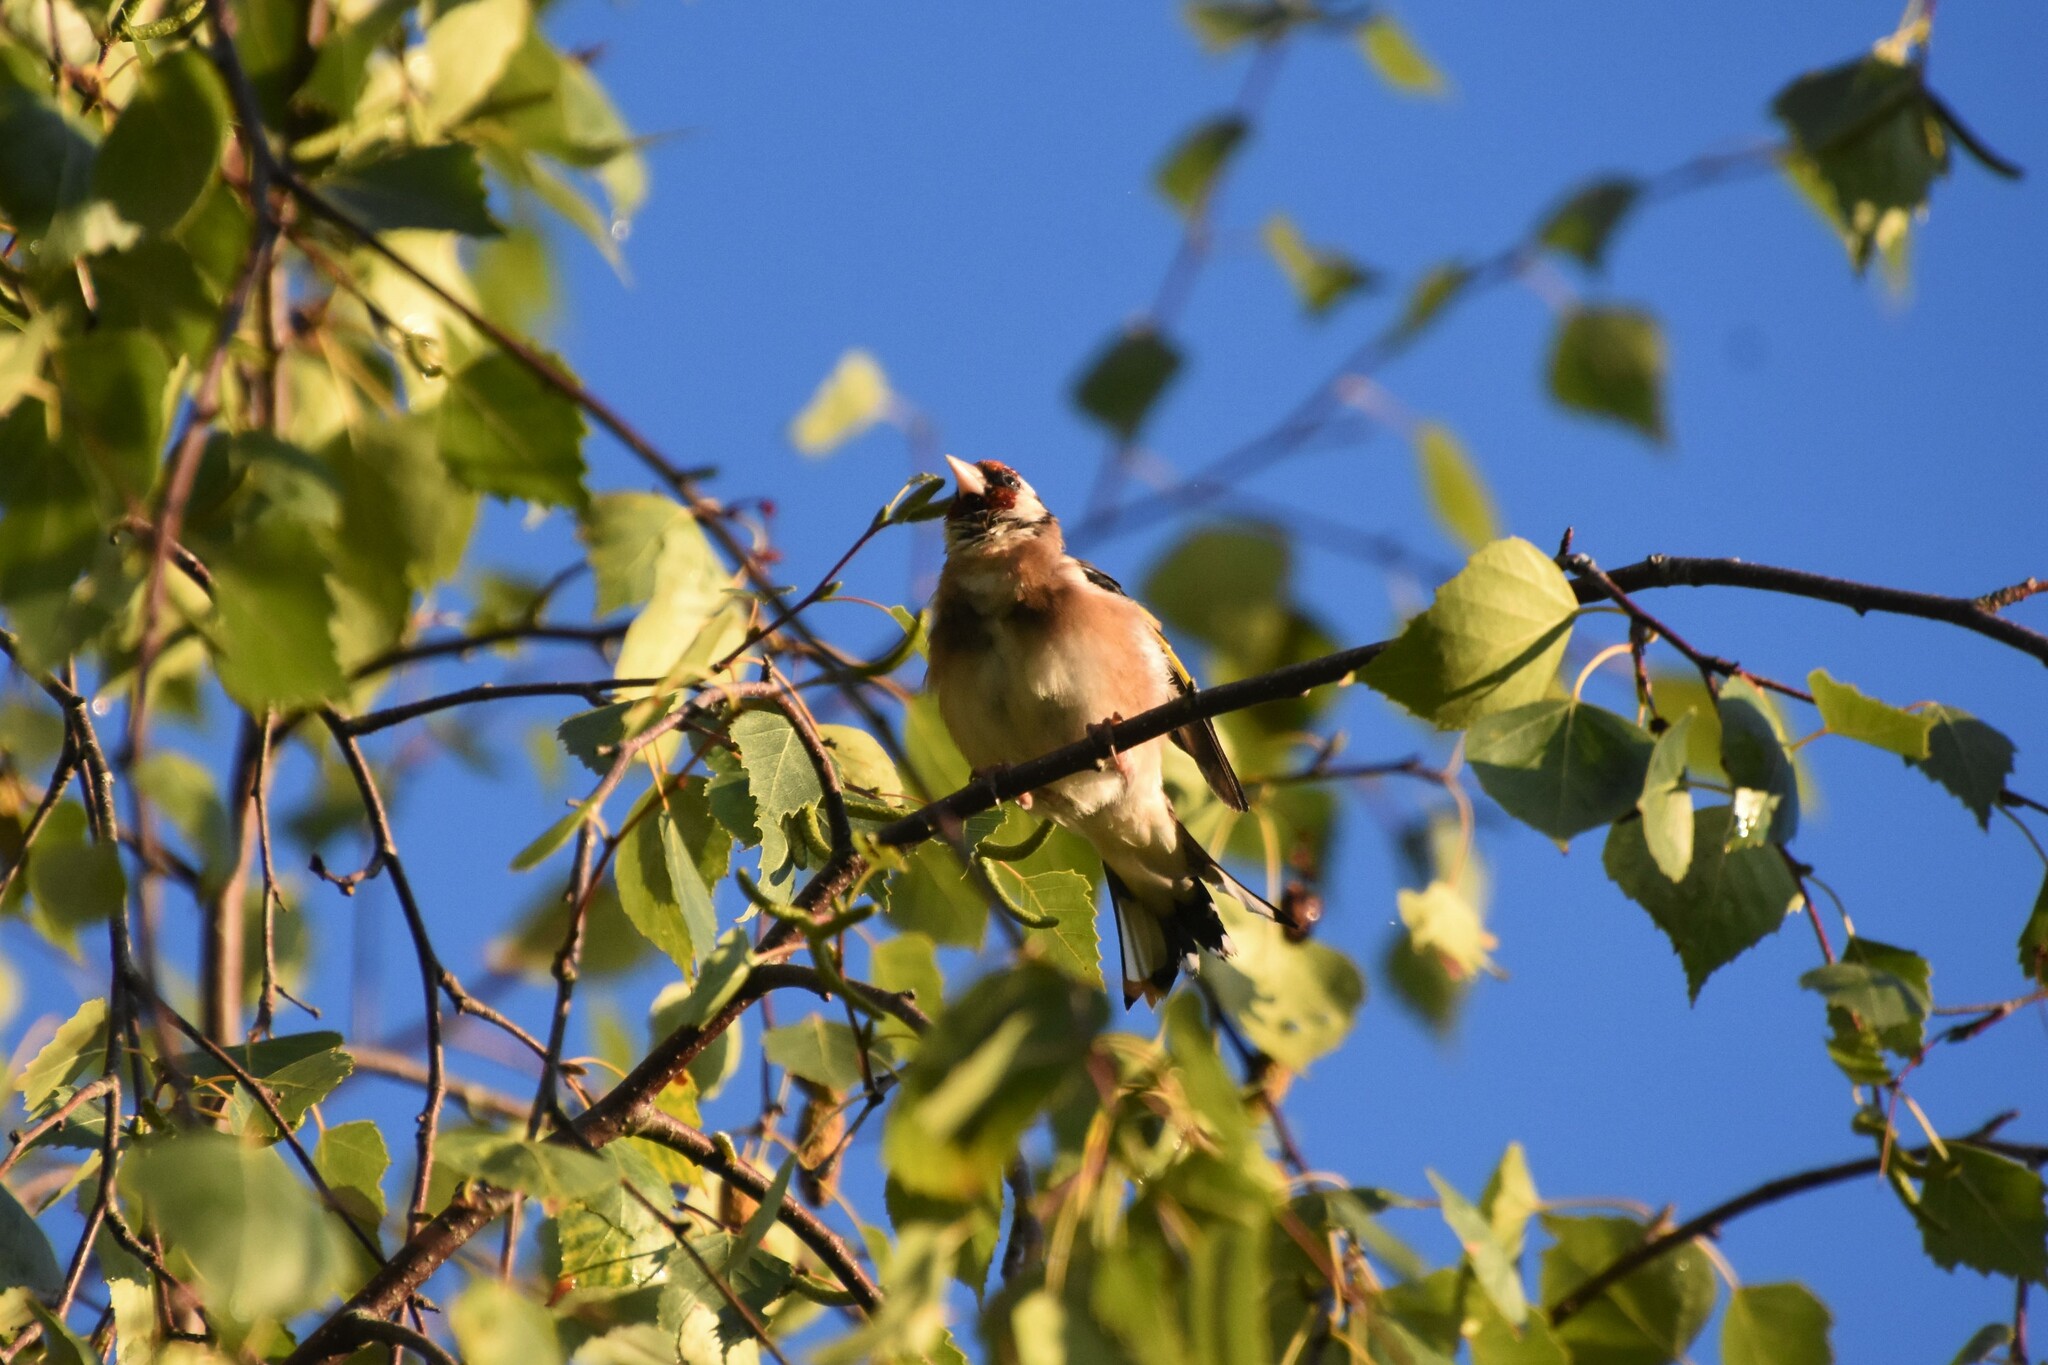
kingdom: Animalia
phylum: Chordata
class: Aves
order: Passeriformes
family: Fringillidae
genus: Carduelis
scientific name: Carduelis carduelis
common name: European goldfinch
